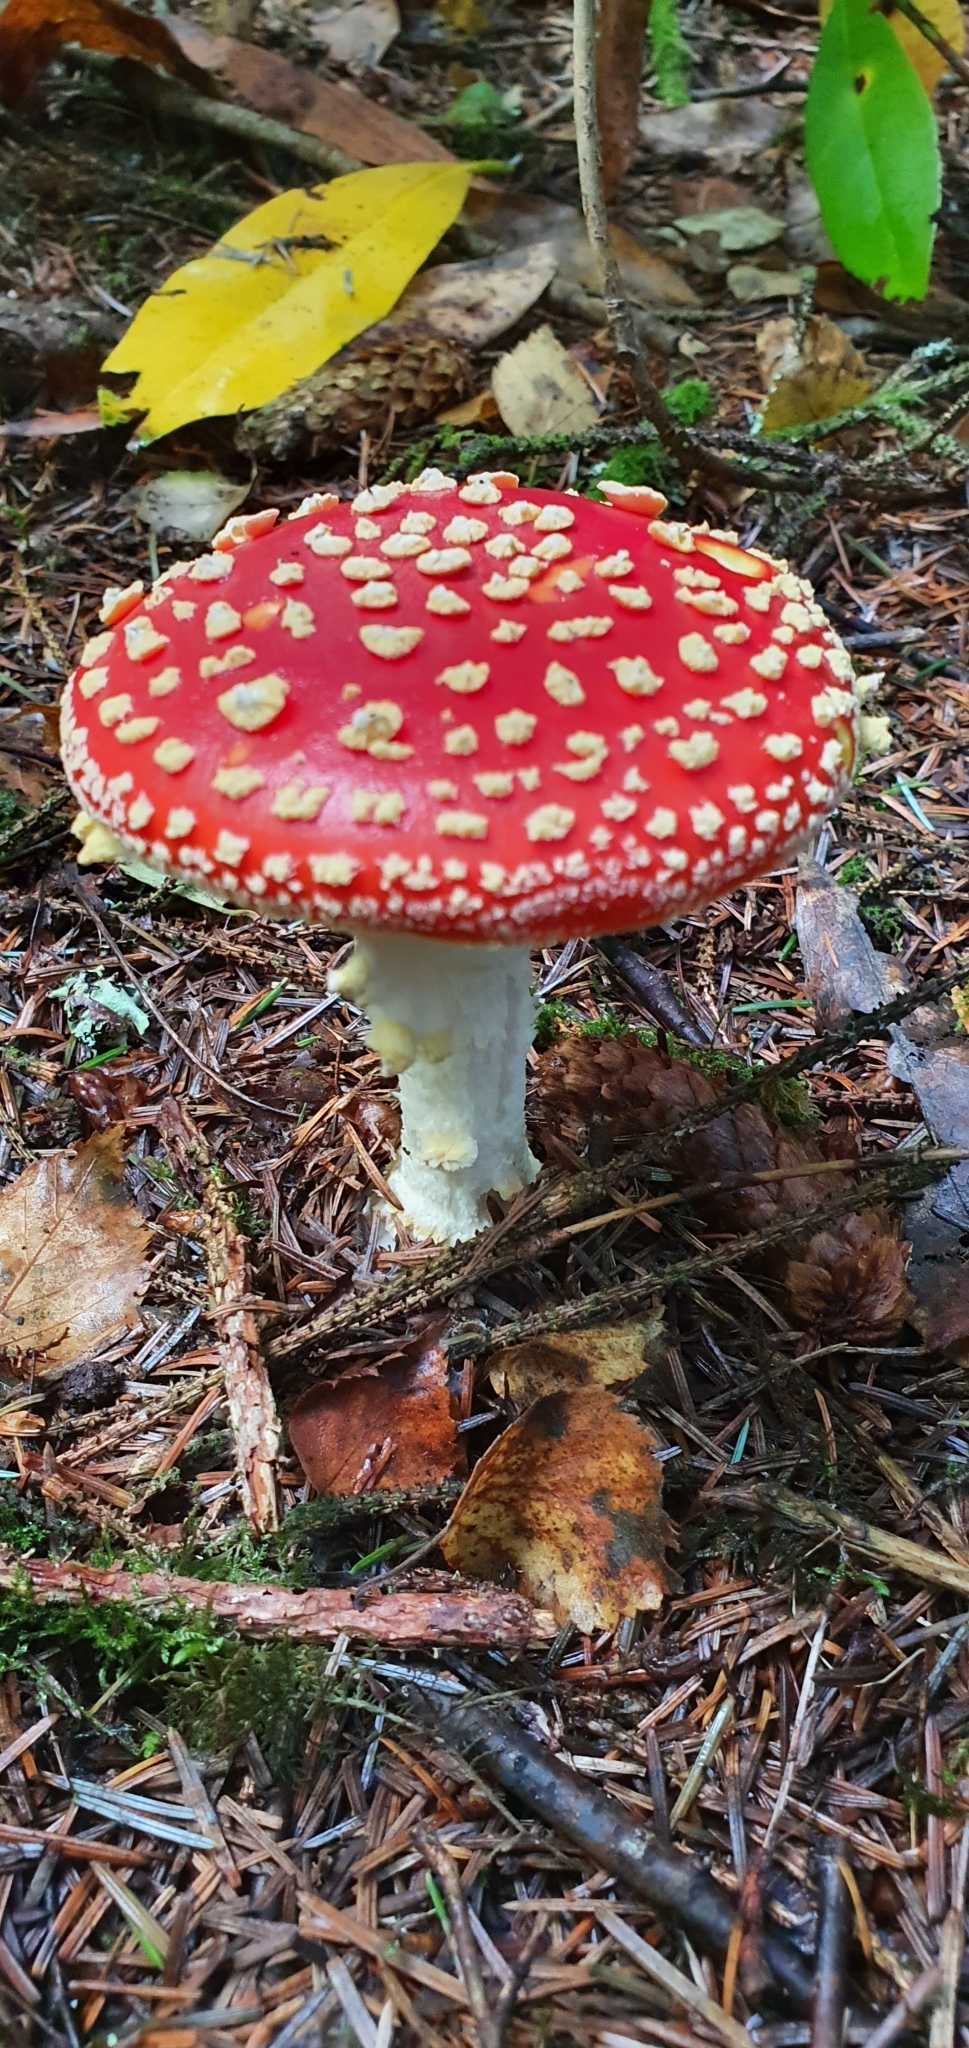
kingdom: Fungi
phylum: Basidiomycota
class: Agaricomycetes
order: Agaricales
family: Amanitaceae
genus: Amanita
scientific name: Amanita muscaria
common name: Fly agaric
